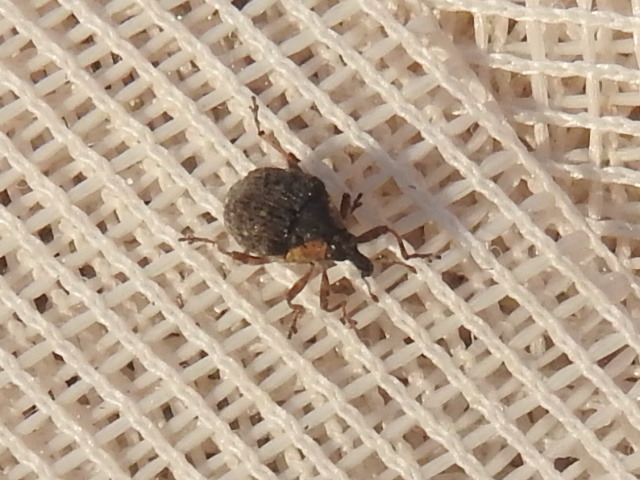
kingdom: Animalia
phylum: Arthropoda
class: Insecta
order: Coleoptera
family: Curculionidae
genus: Perigaster
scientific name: Perigaster cretura
